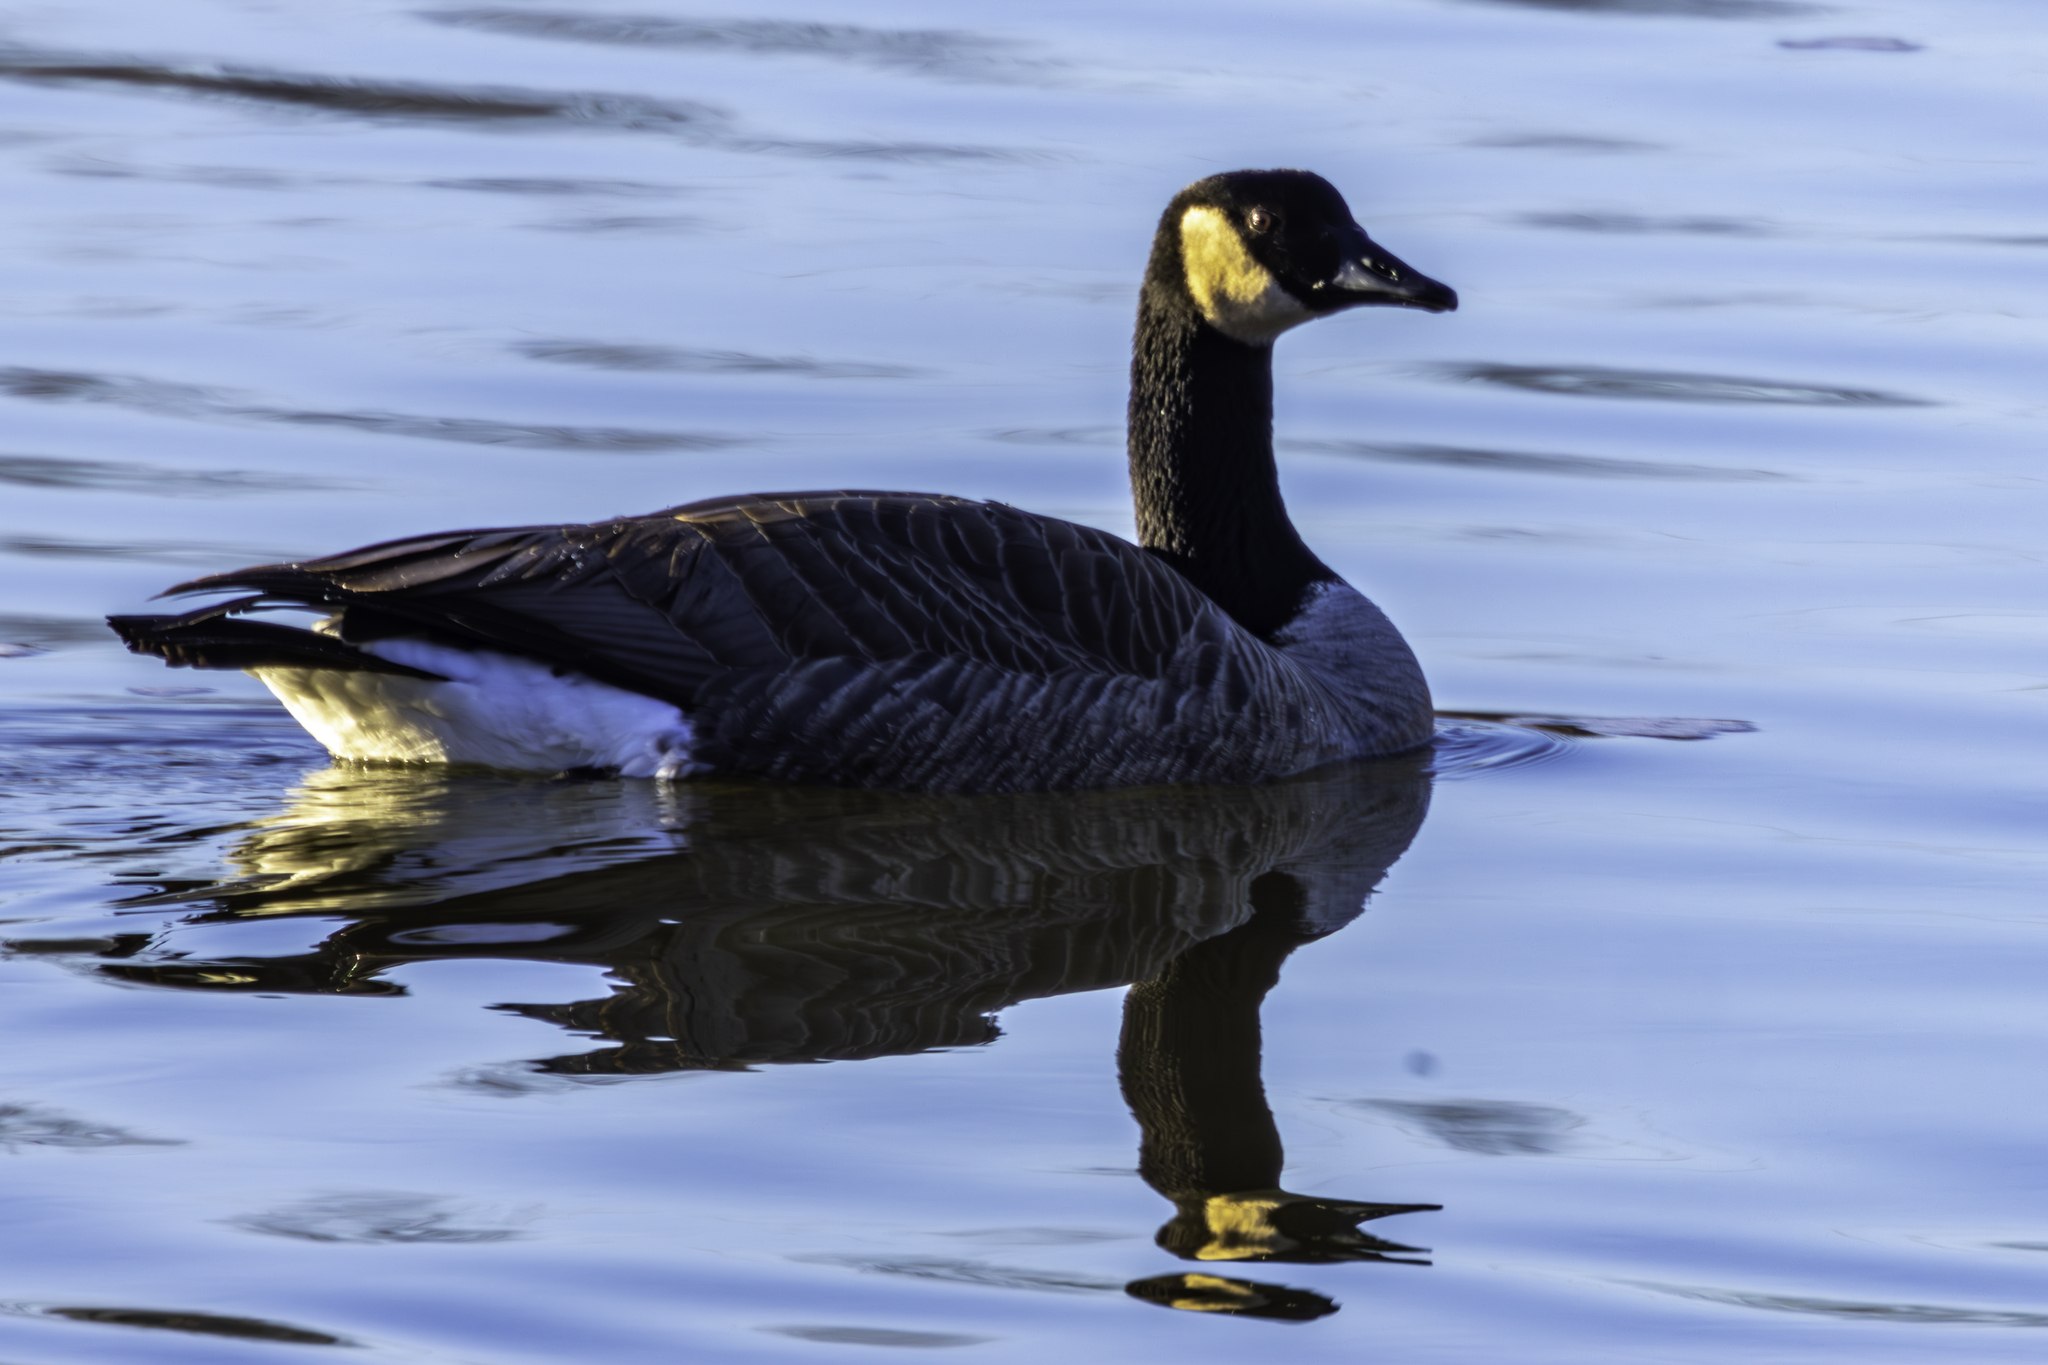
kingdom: Animalia
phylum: Chordata
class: Aves
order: Anseriformes
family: Anatidae
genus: Branta
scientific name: Branta canadensis
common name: Canada goose
